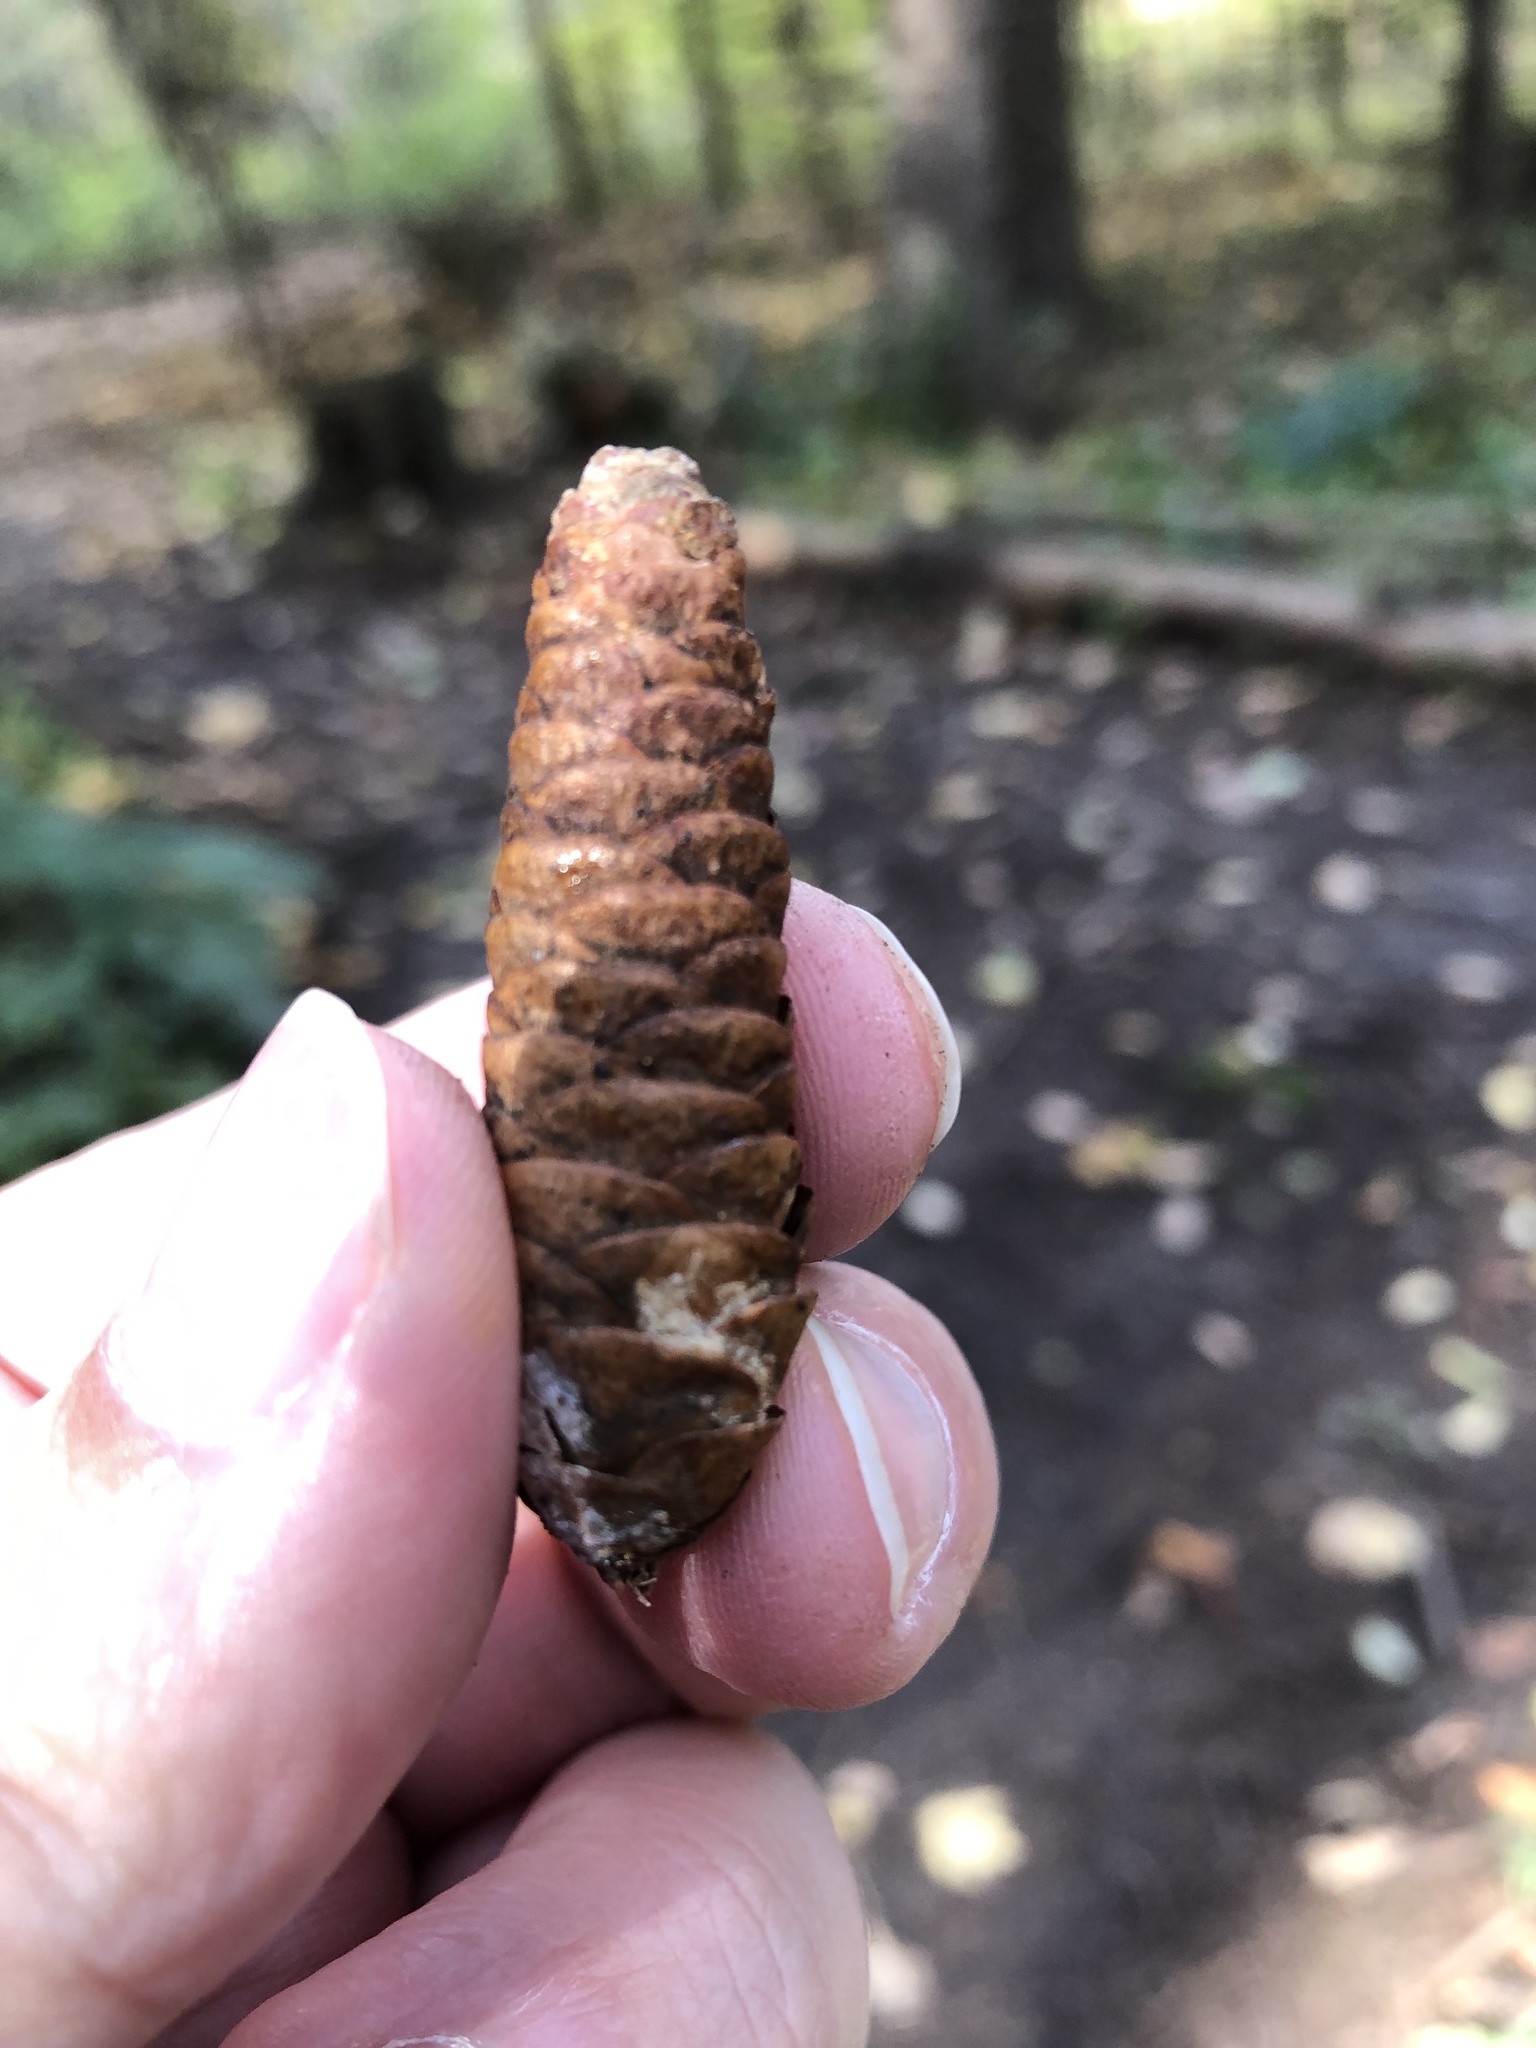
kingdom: Plantae
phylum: Tracheophyta
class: Pinopsida
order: Pinales
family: Pinaceae
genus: Picea
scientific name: Picea glauca
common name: White spruce
